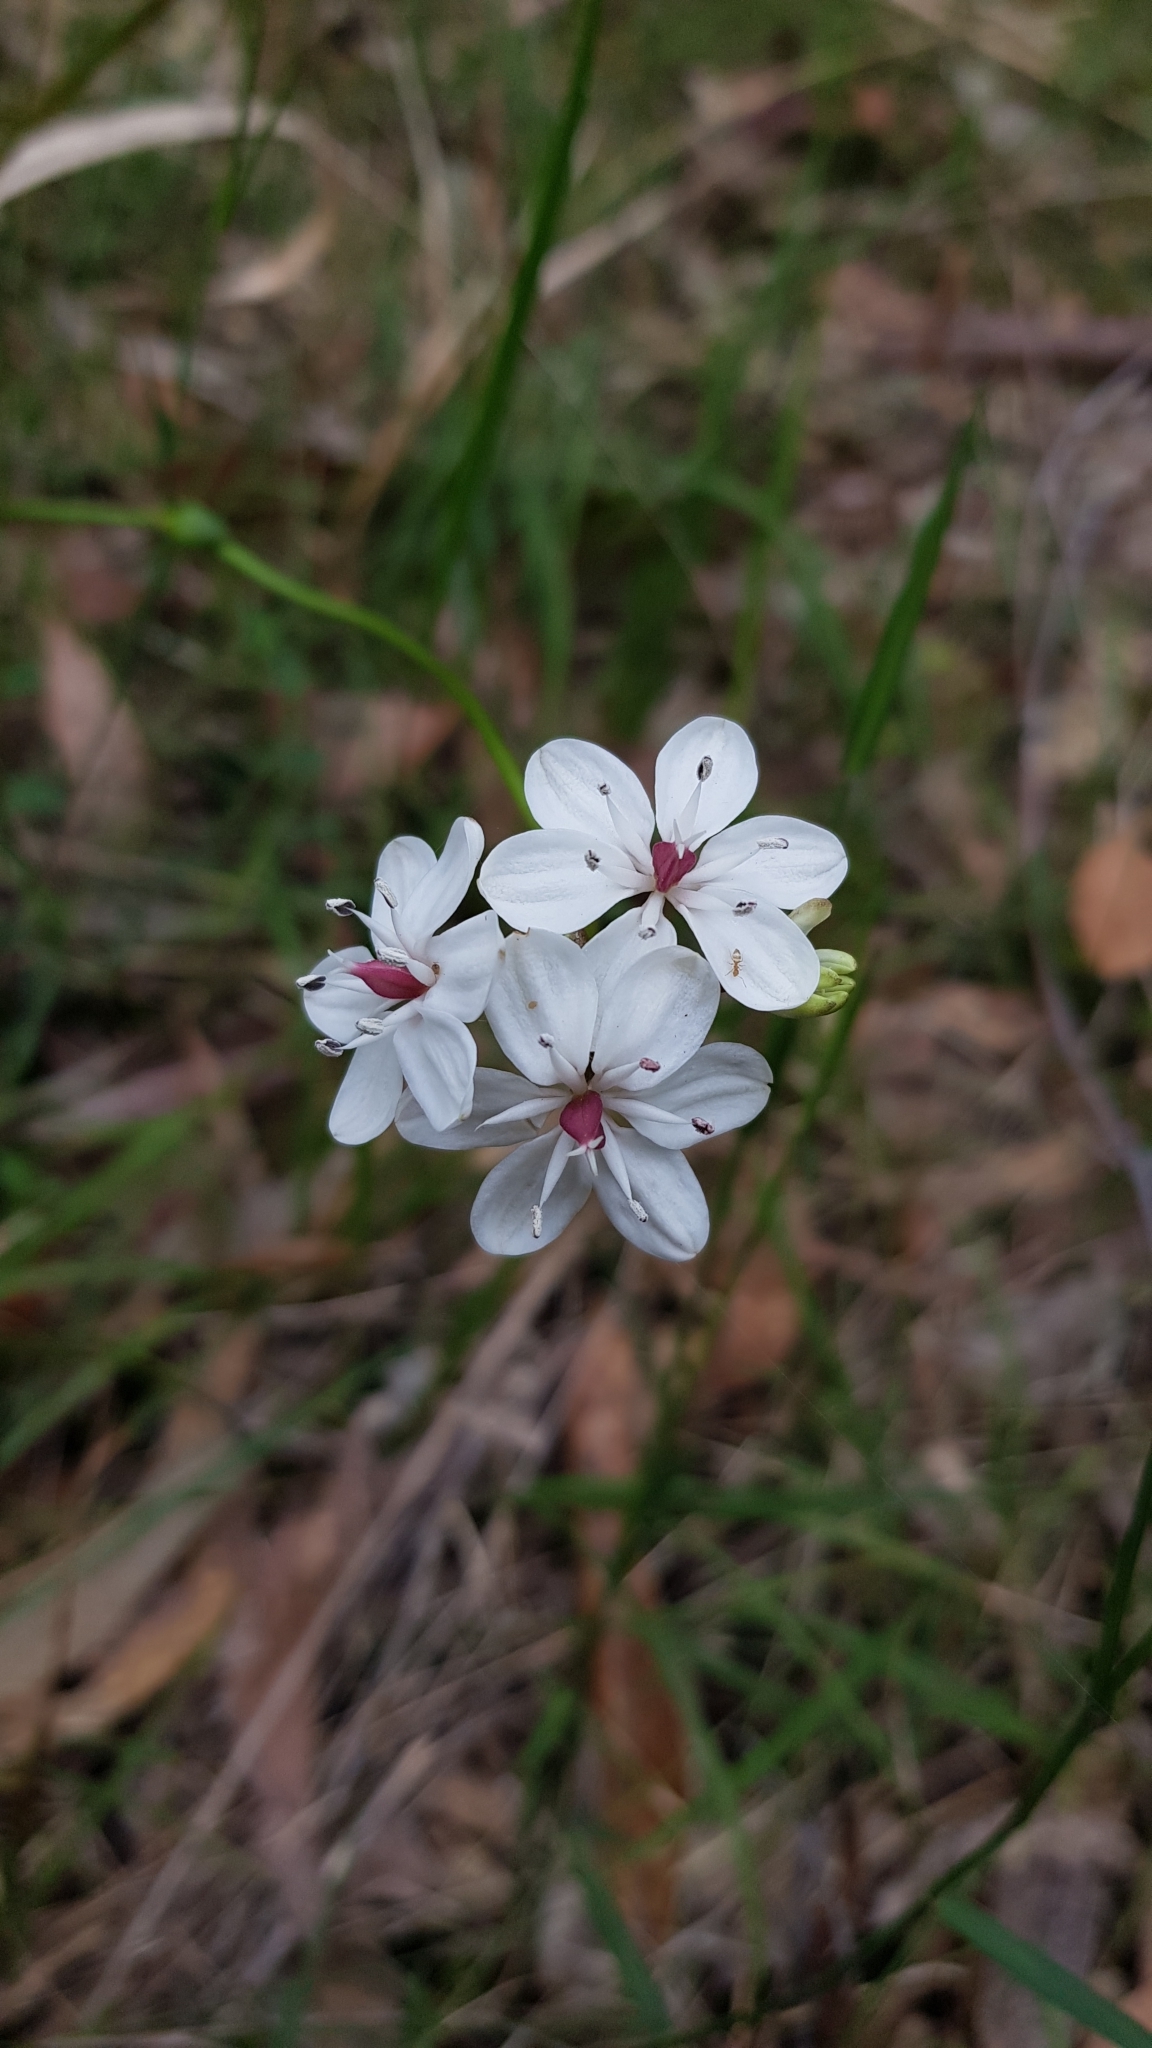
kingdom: Plantae
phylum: Tracheophyta
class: Liliopsida
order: Liliales
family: Colchicaceae
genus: Burchardia
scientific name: Burchardia umbellata
